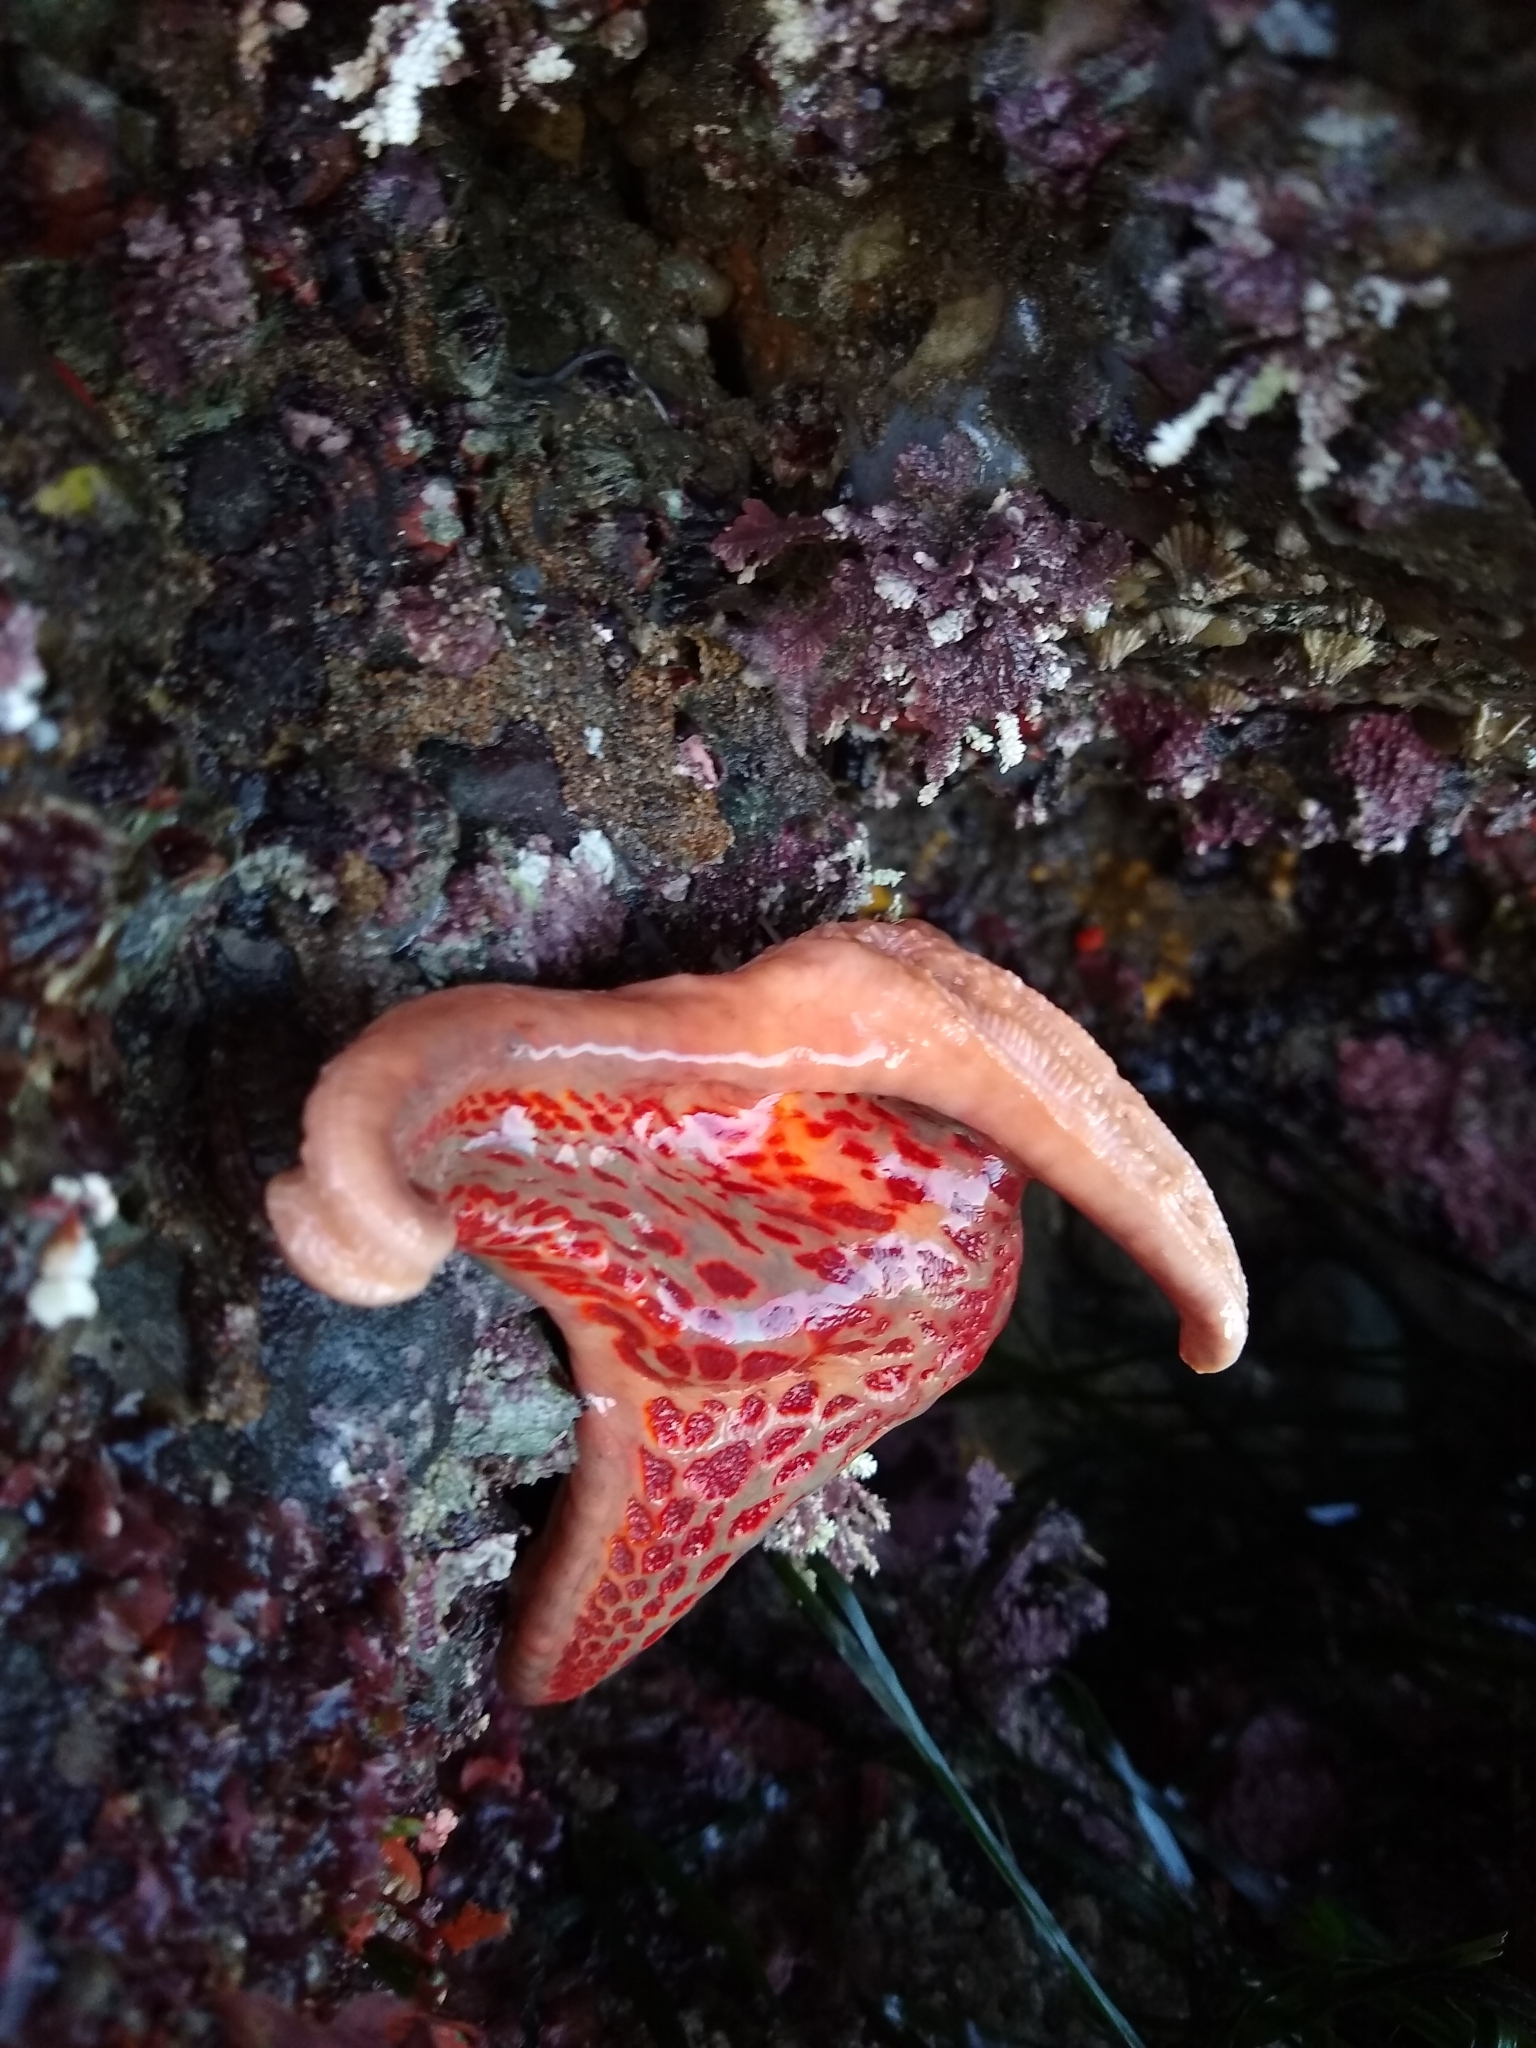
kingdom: Animalia
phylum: Echinodermata
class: Asteroidea
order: Valvatida
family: Asteropseidae
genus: Dermasterias
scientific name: Dermasterias imbricata
